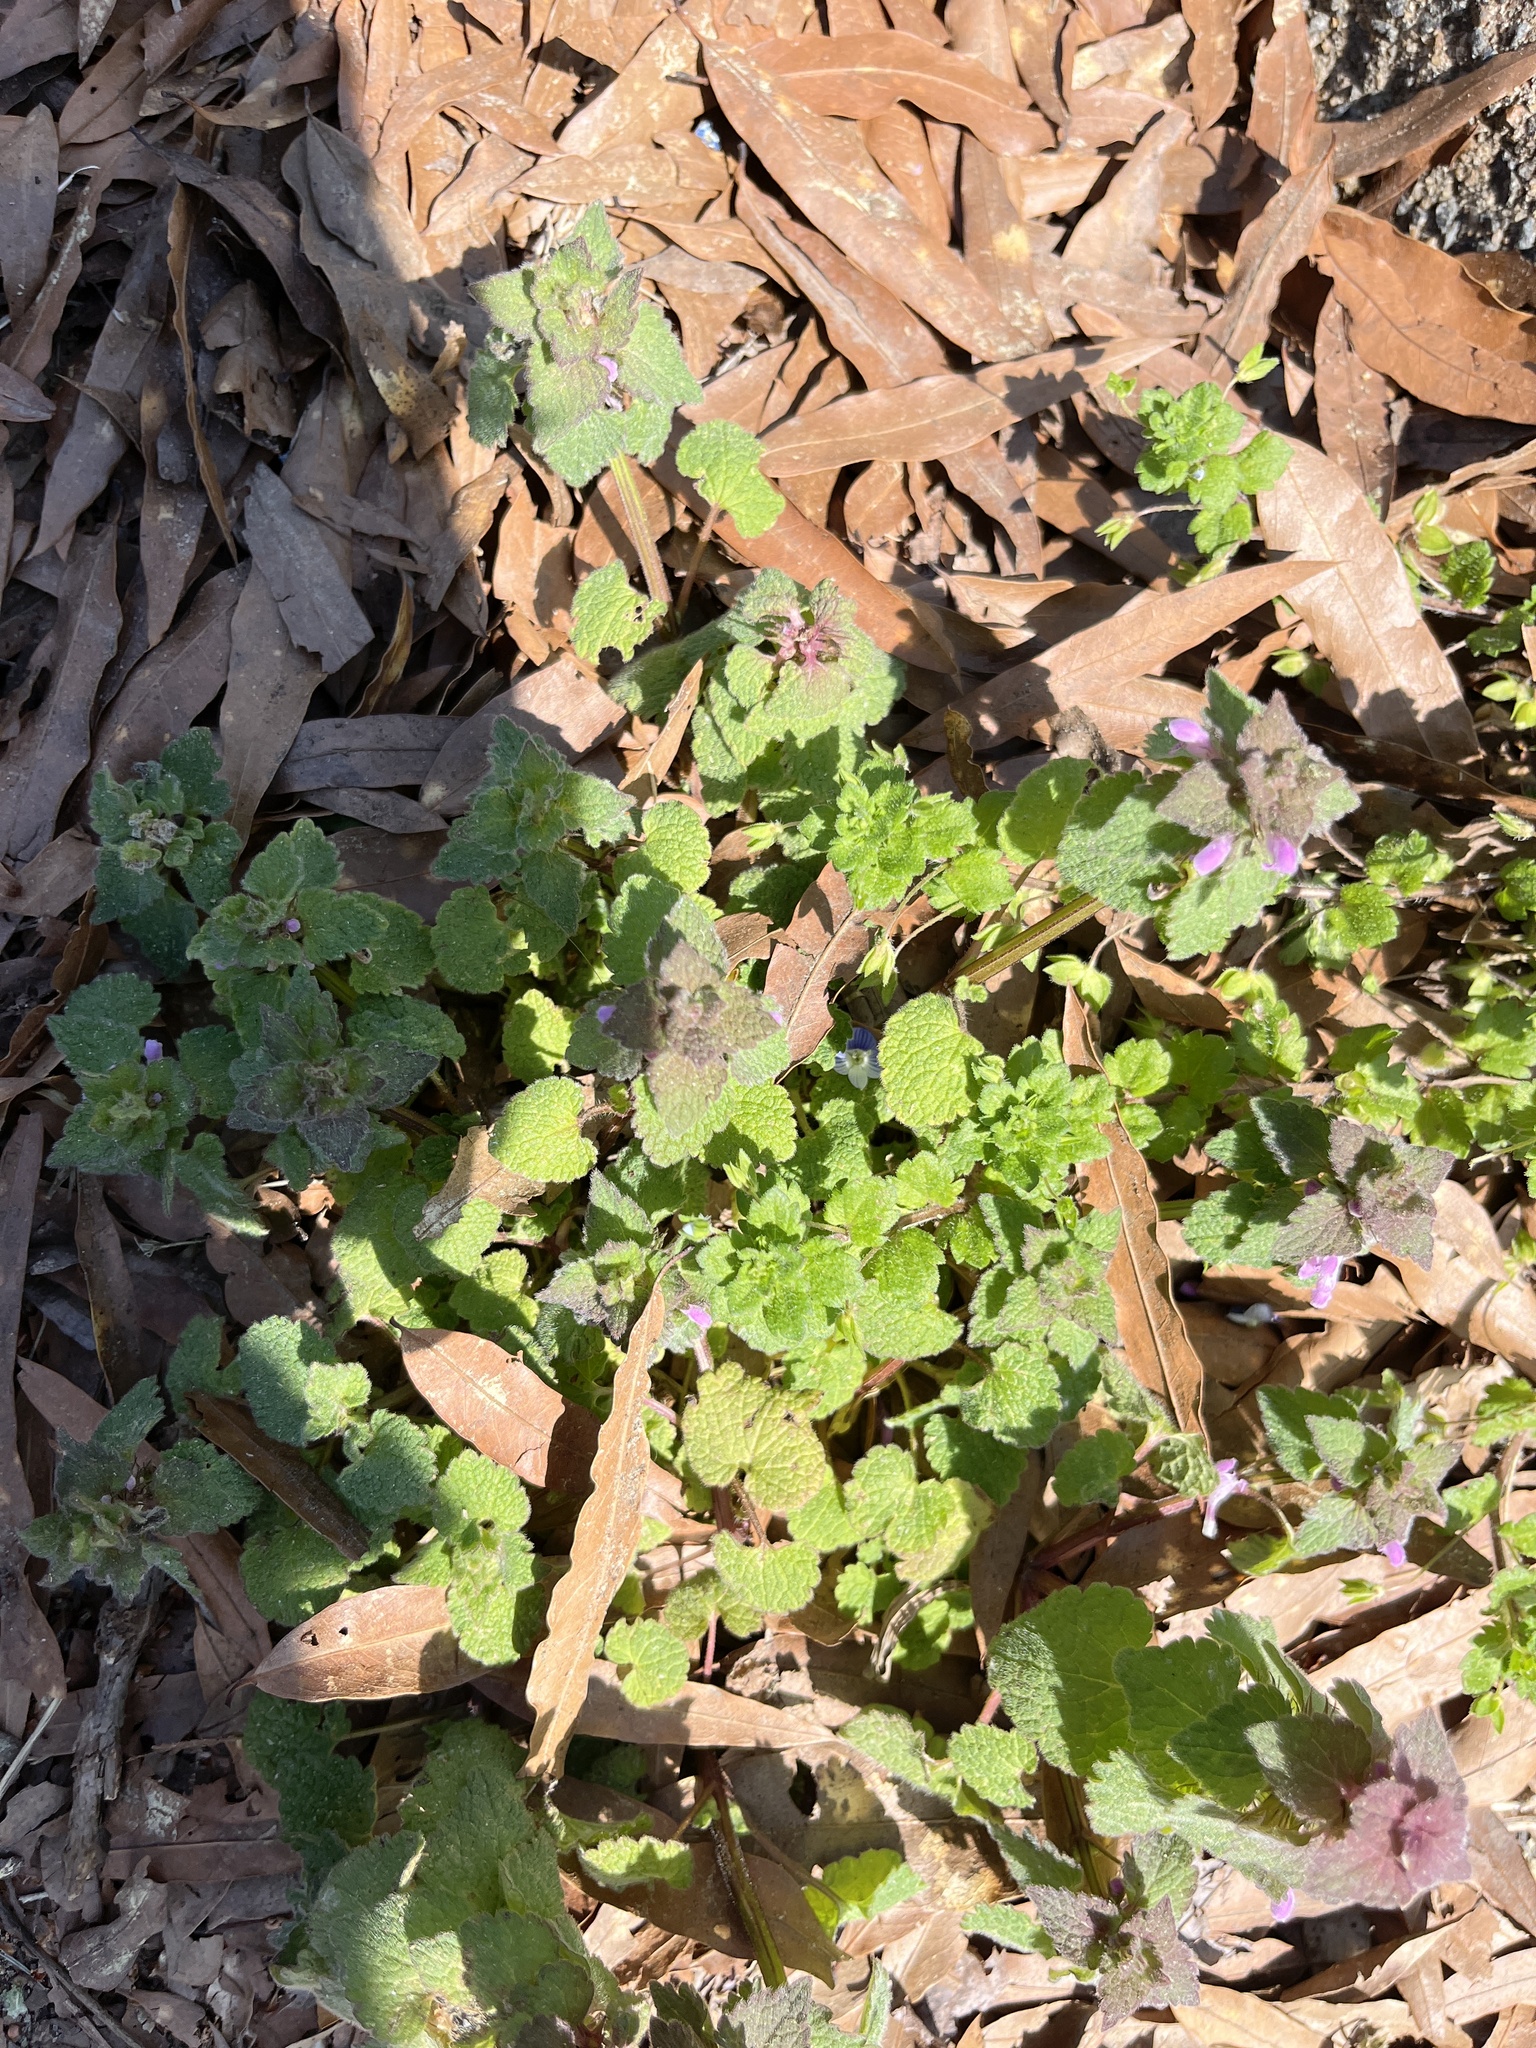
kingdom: Plantae
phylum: Tracheophyta
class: Magnoliopsida
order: Lamiales
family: Lamiaceae
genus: Lamium
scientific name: Lamium purpureum
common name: Red dead-nettle
